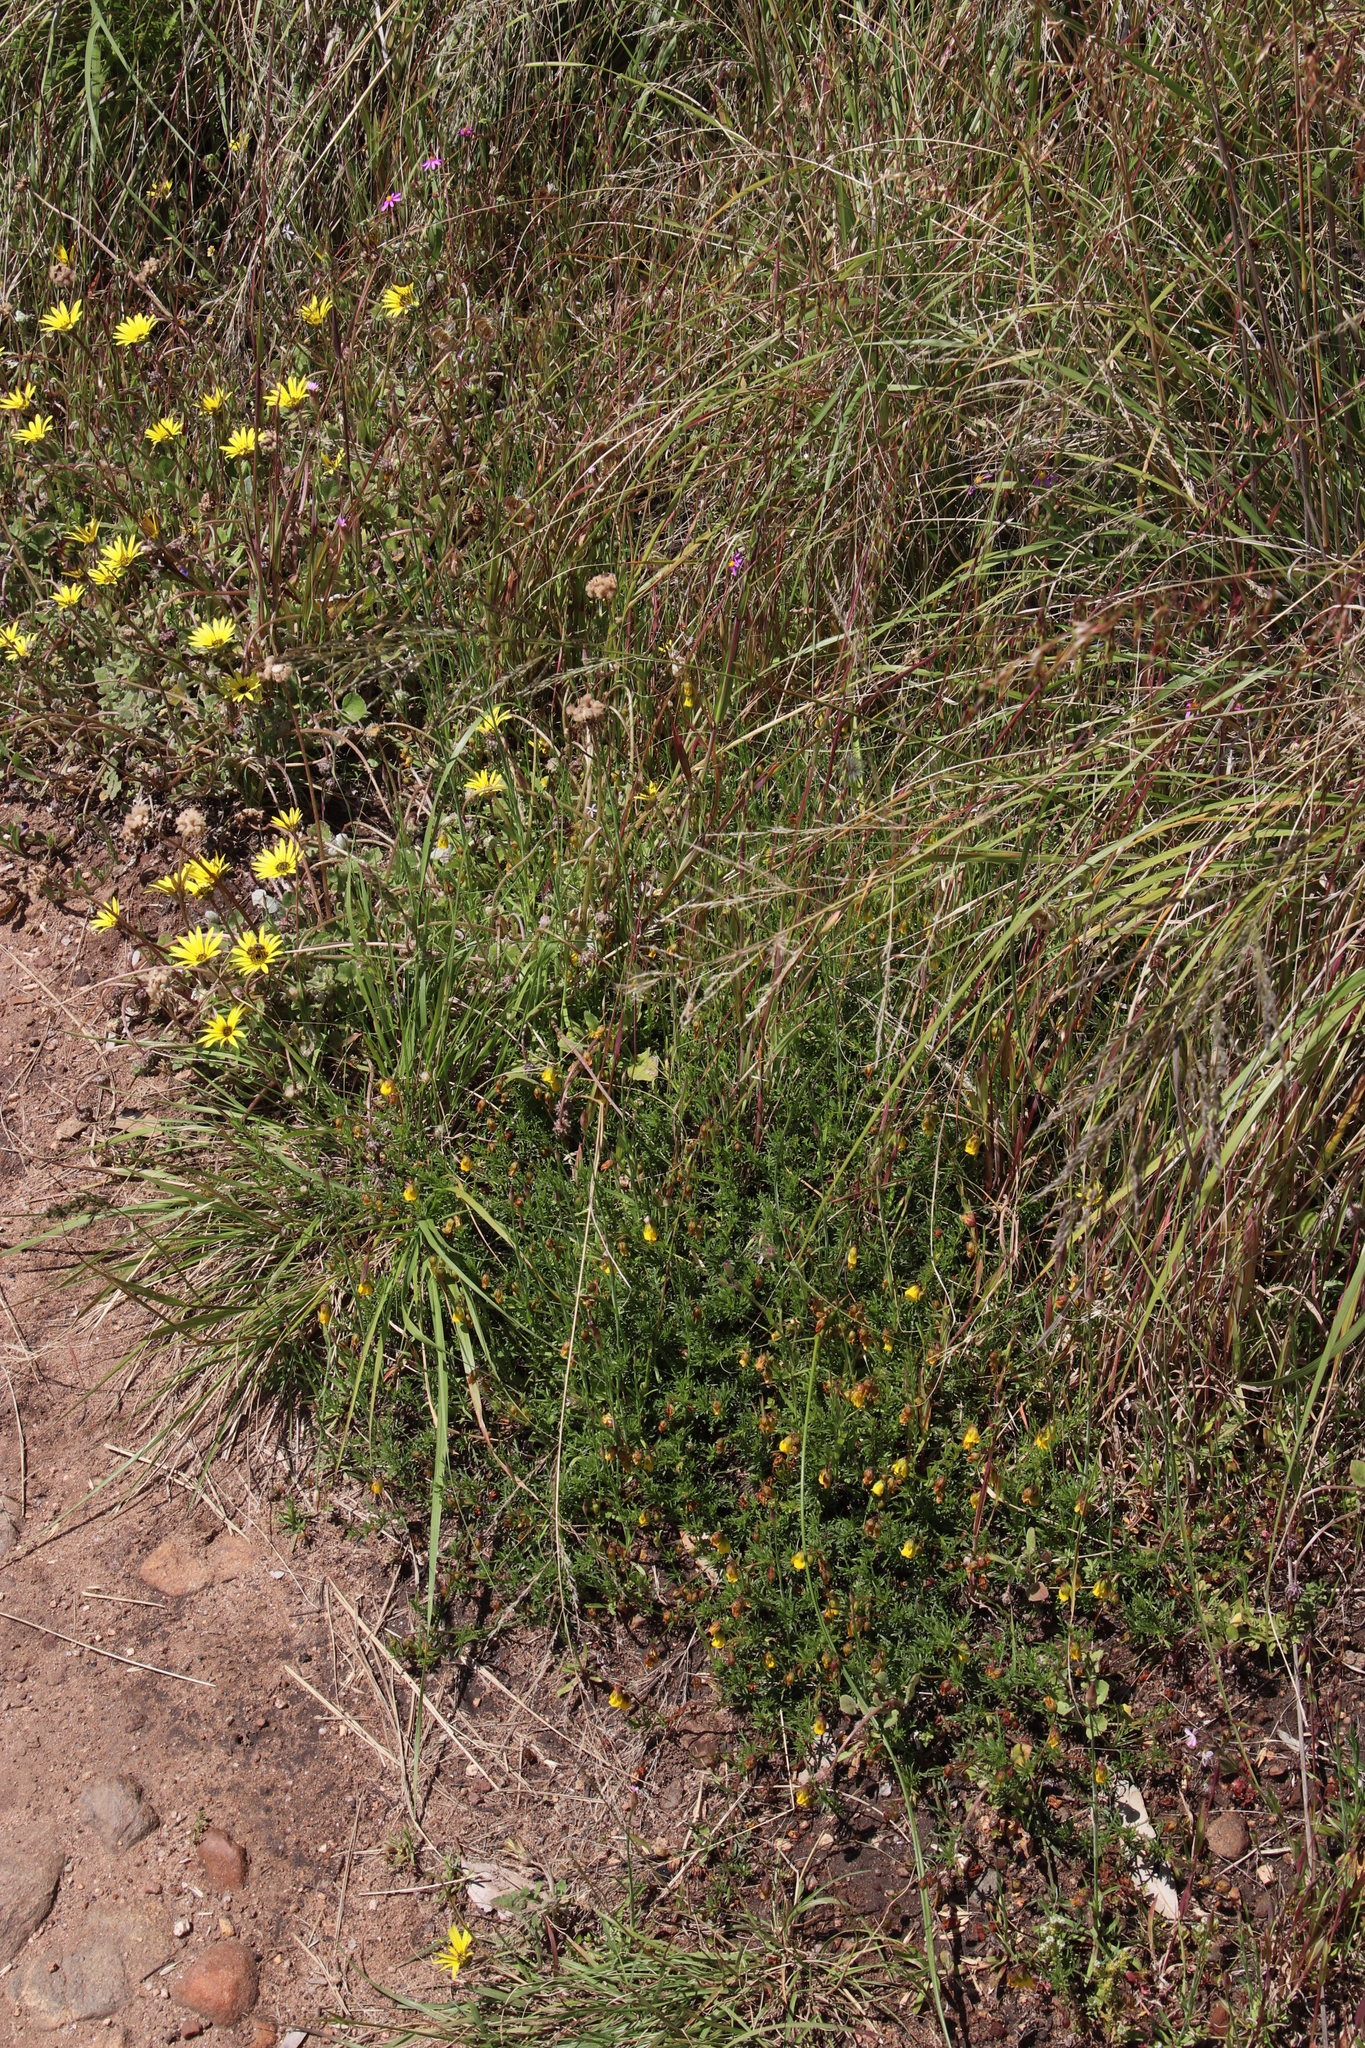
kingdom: Plantae
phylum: Tracheophyta
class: Magnoliopsida
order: Malvales
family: Malvaceae
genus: Hermannia
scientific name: Hermannia pinnata
